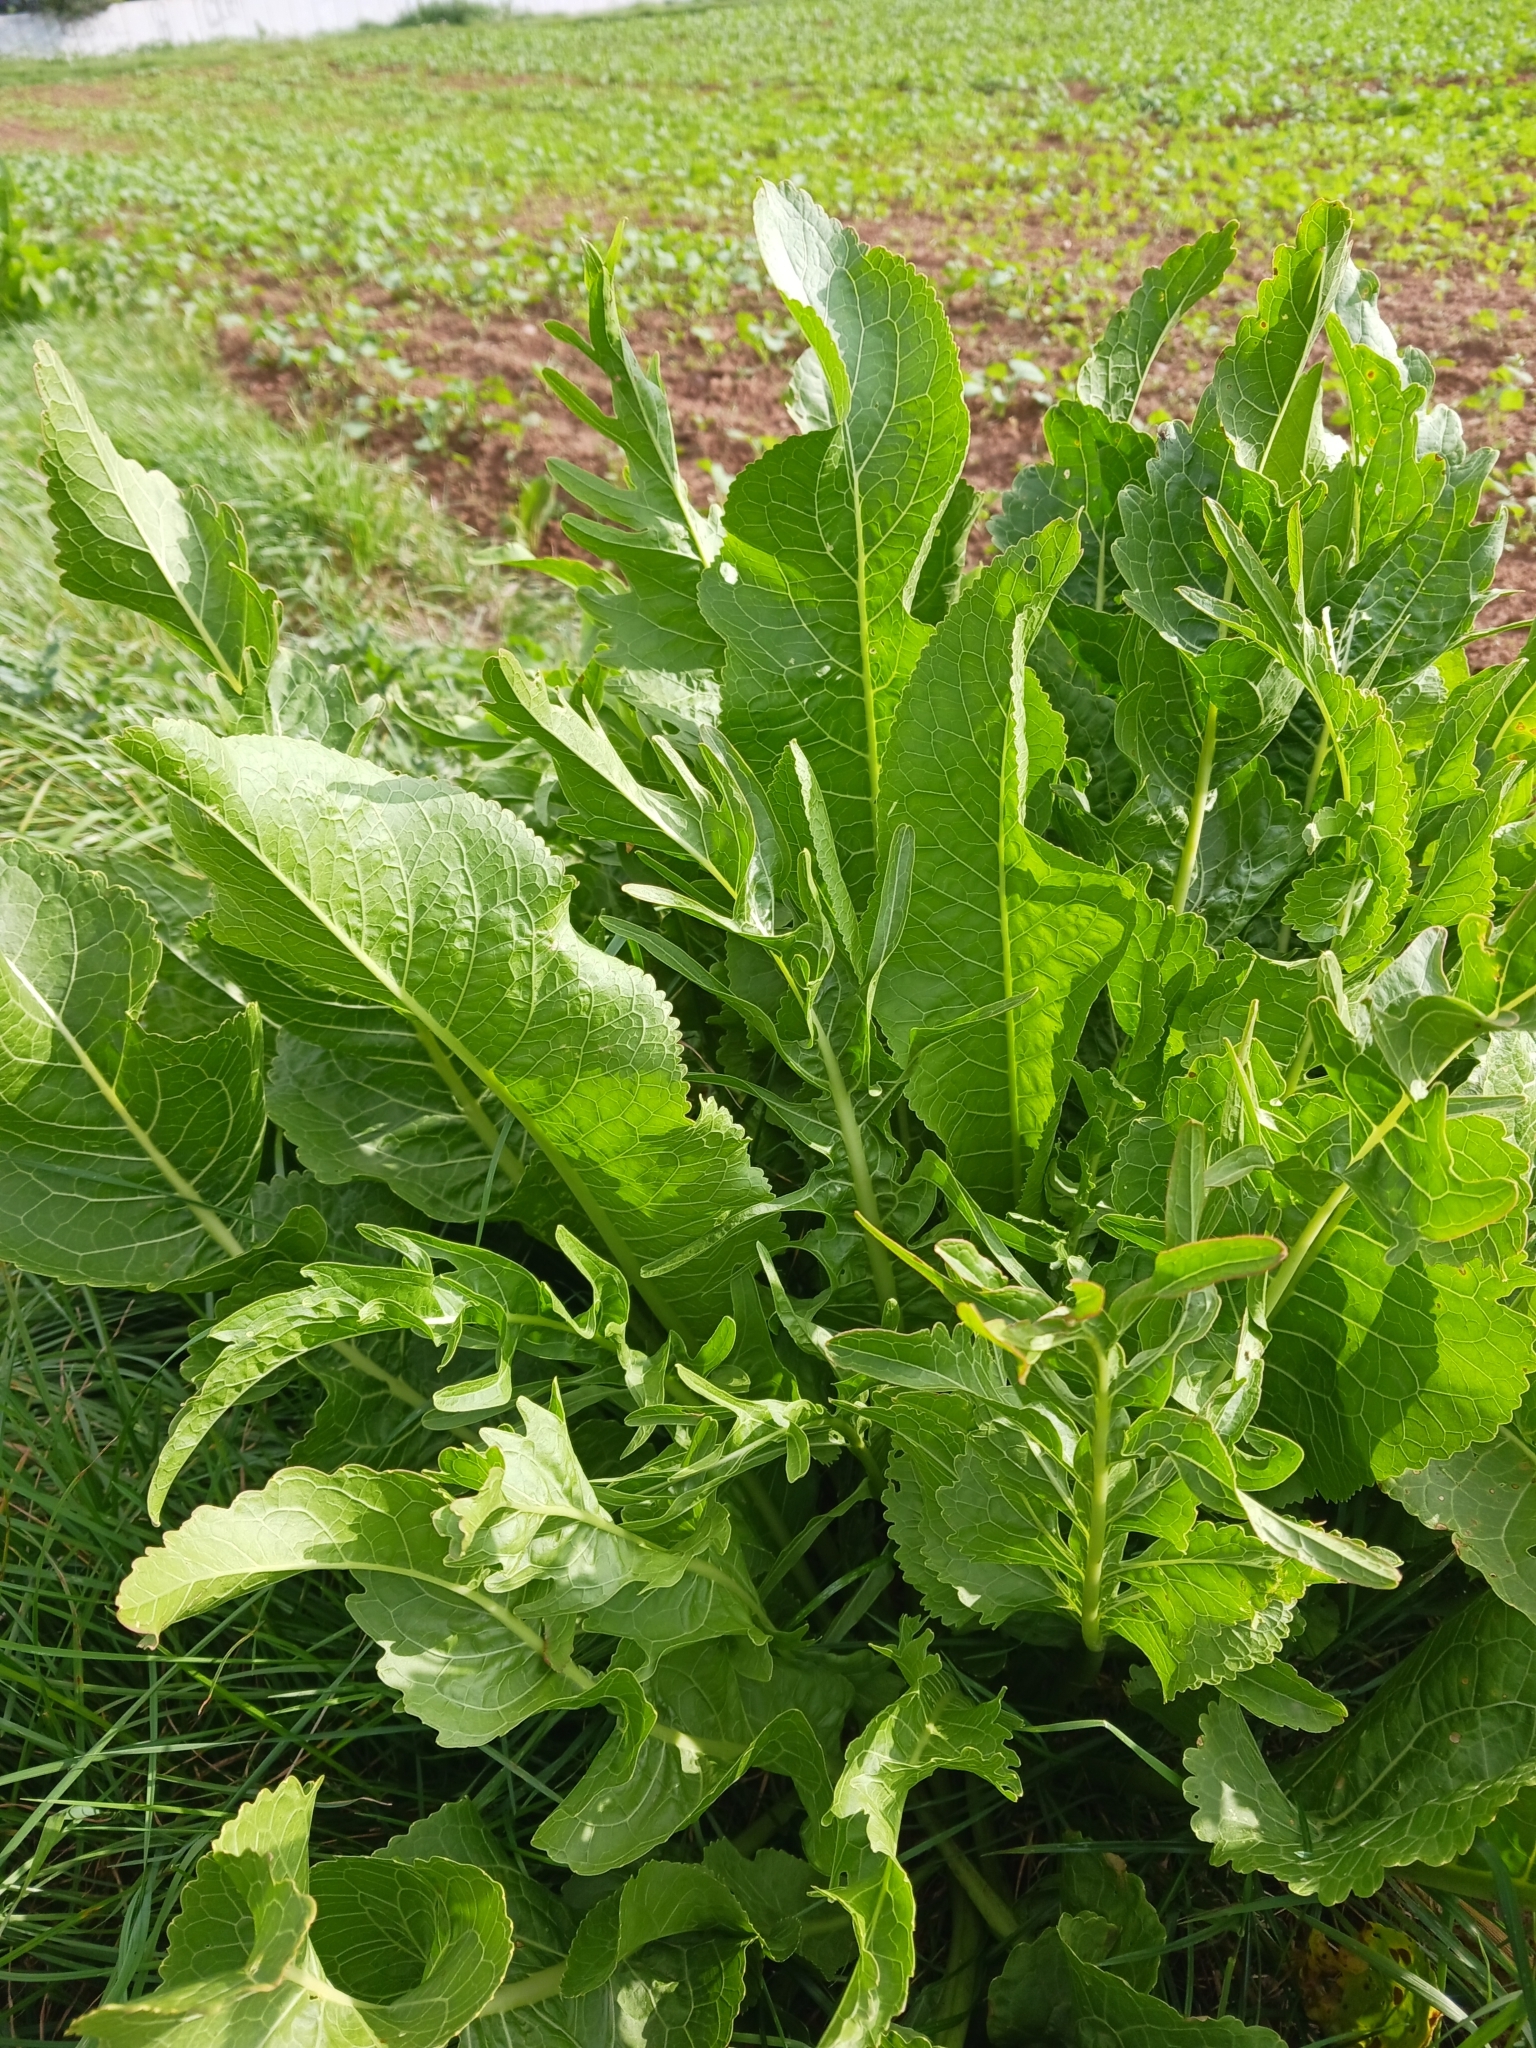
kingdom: Plantae
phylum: Tracheophyta
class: Magnoliopsida
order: Brassicales
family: Brassicaceae
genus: Armoracia
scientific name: Armoracia rusticana
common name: Horseradish
